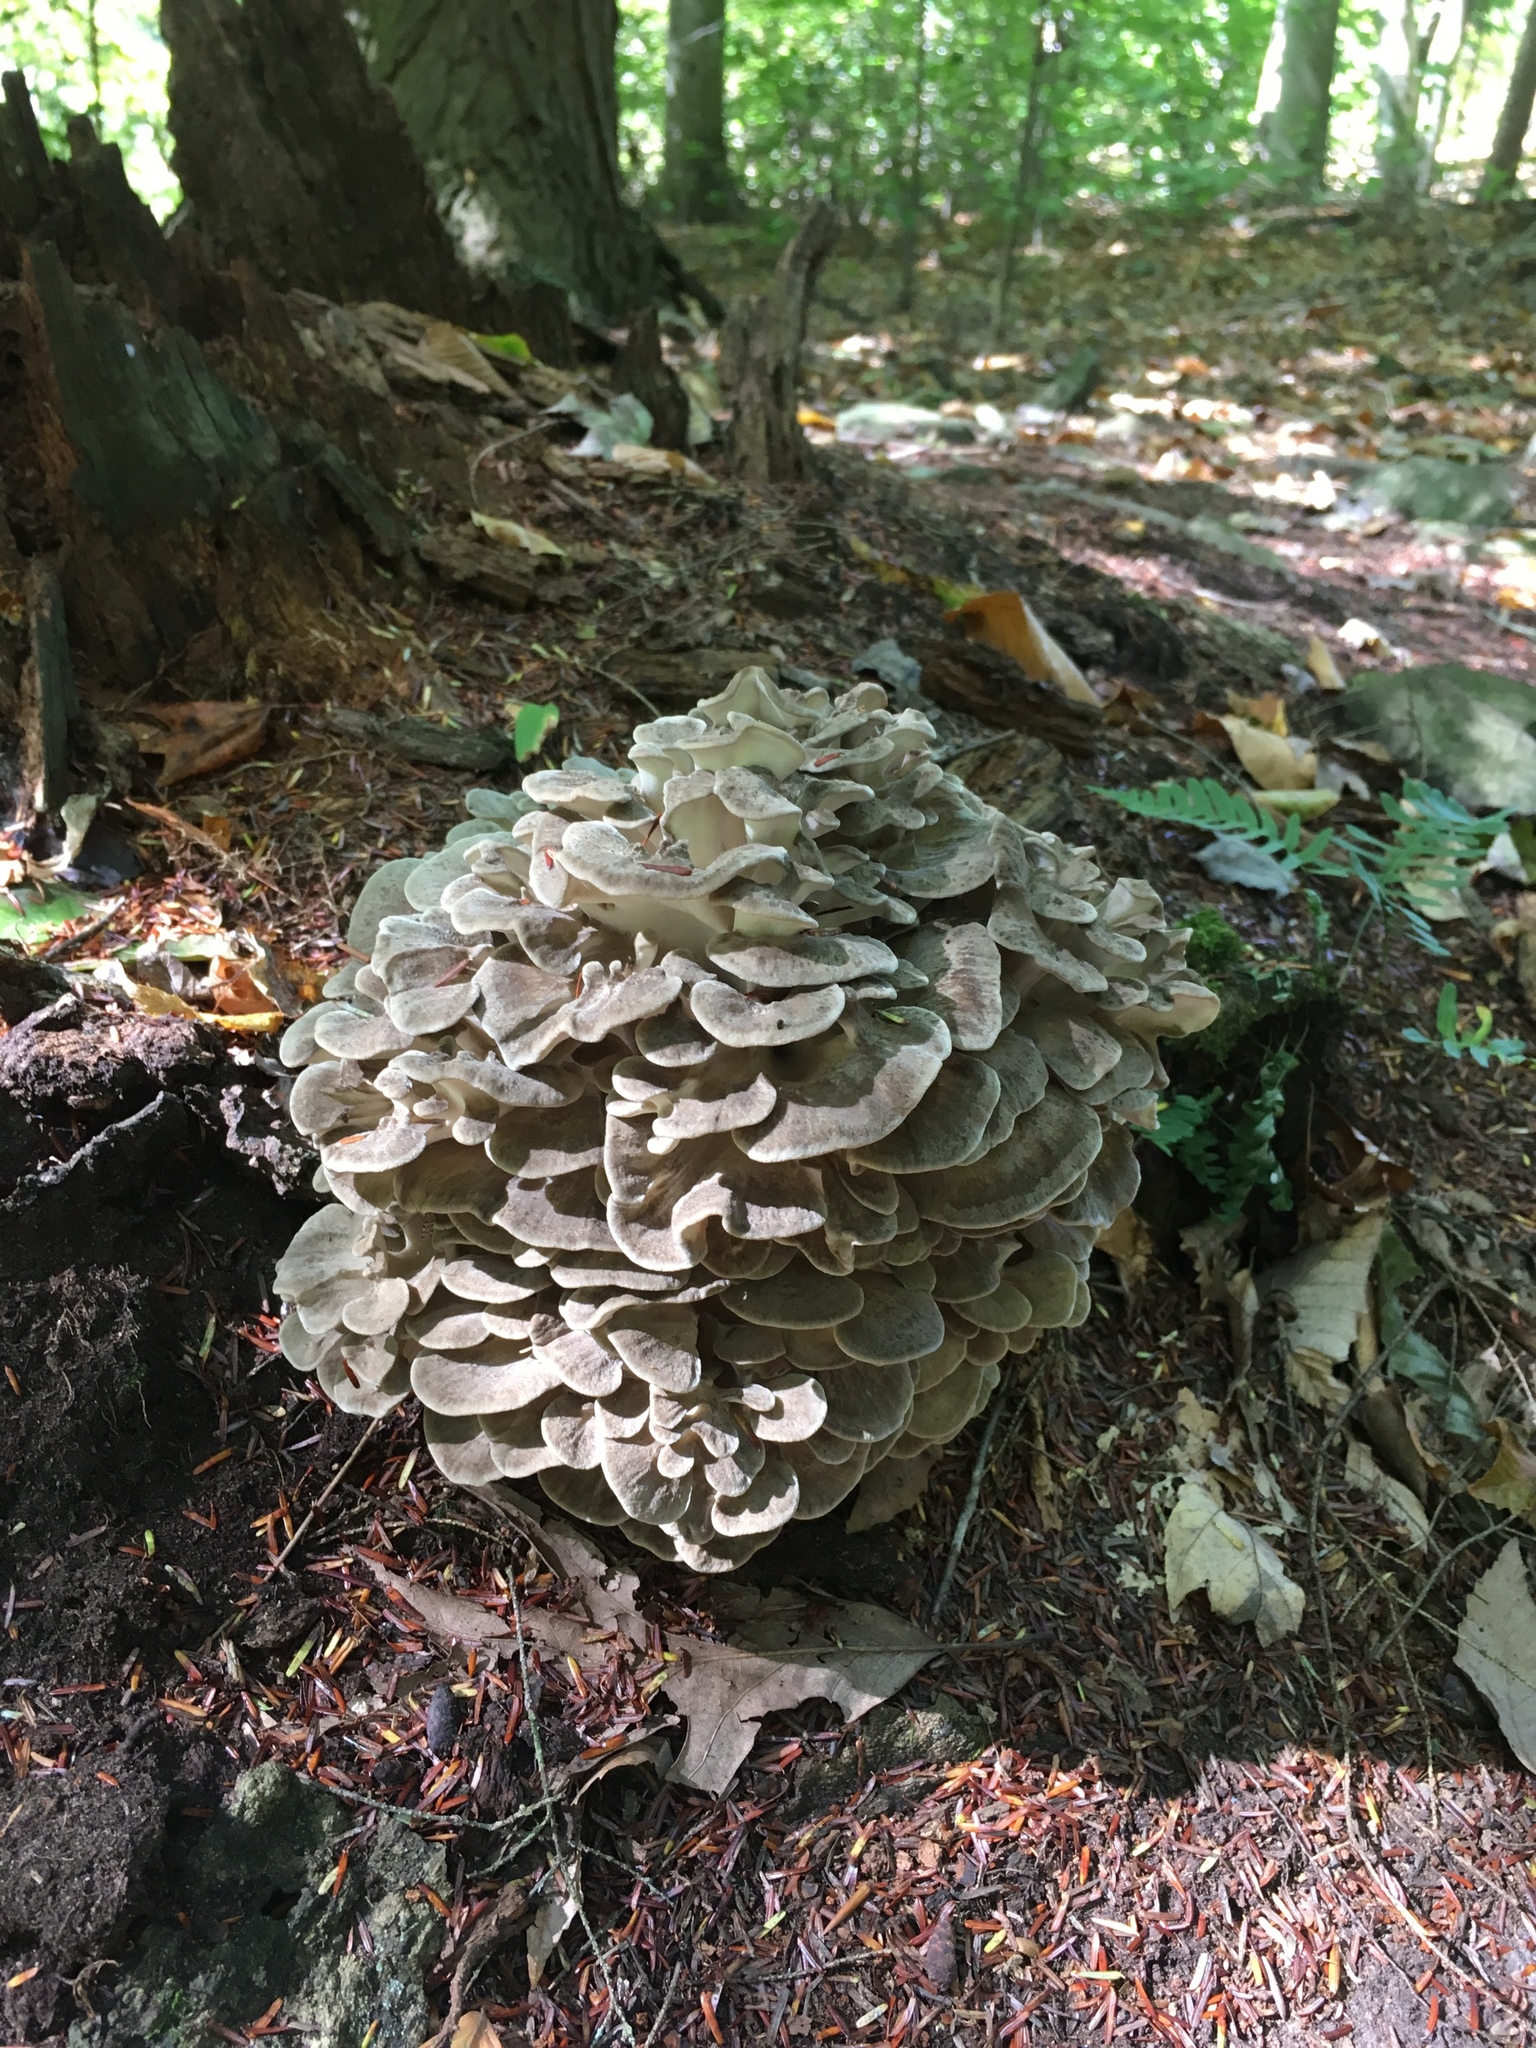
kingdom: Fungi
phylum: Basidiomycota
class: Agaricomycetes
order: Polyporales
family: Grifolaceae
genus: Grifola
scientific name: Grifola frondosa
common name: Hen of the woods
